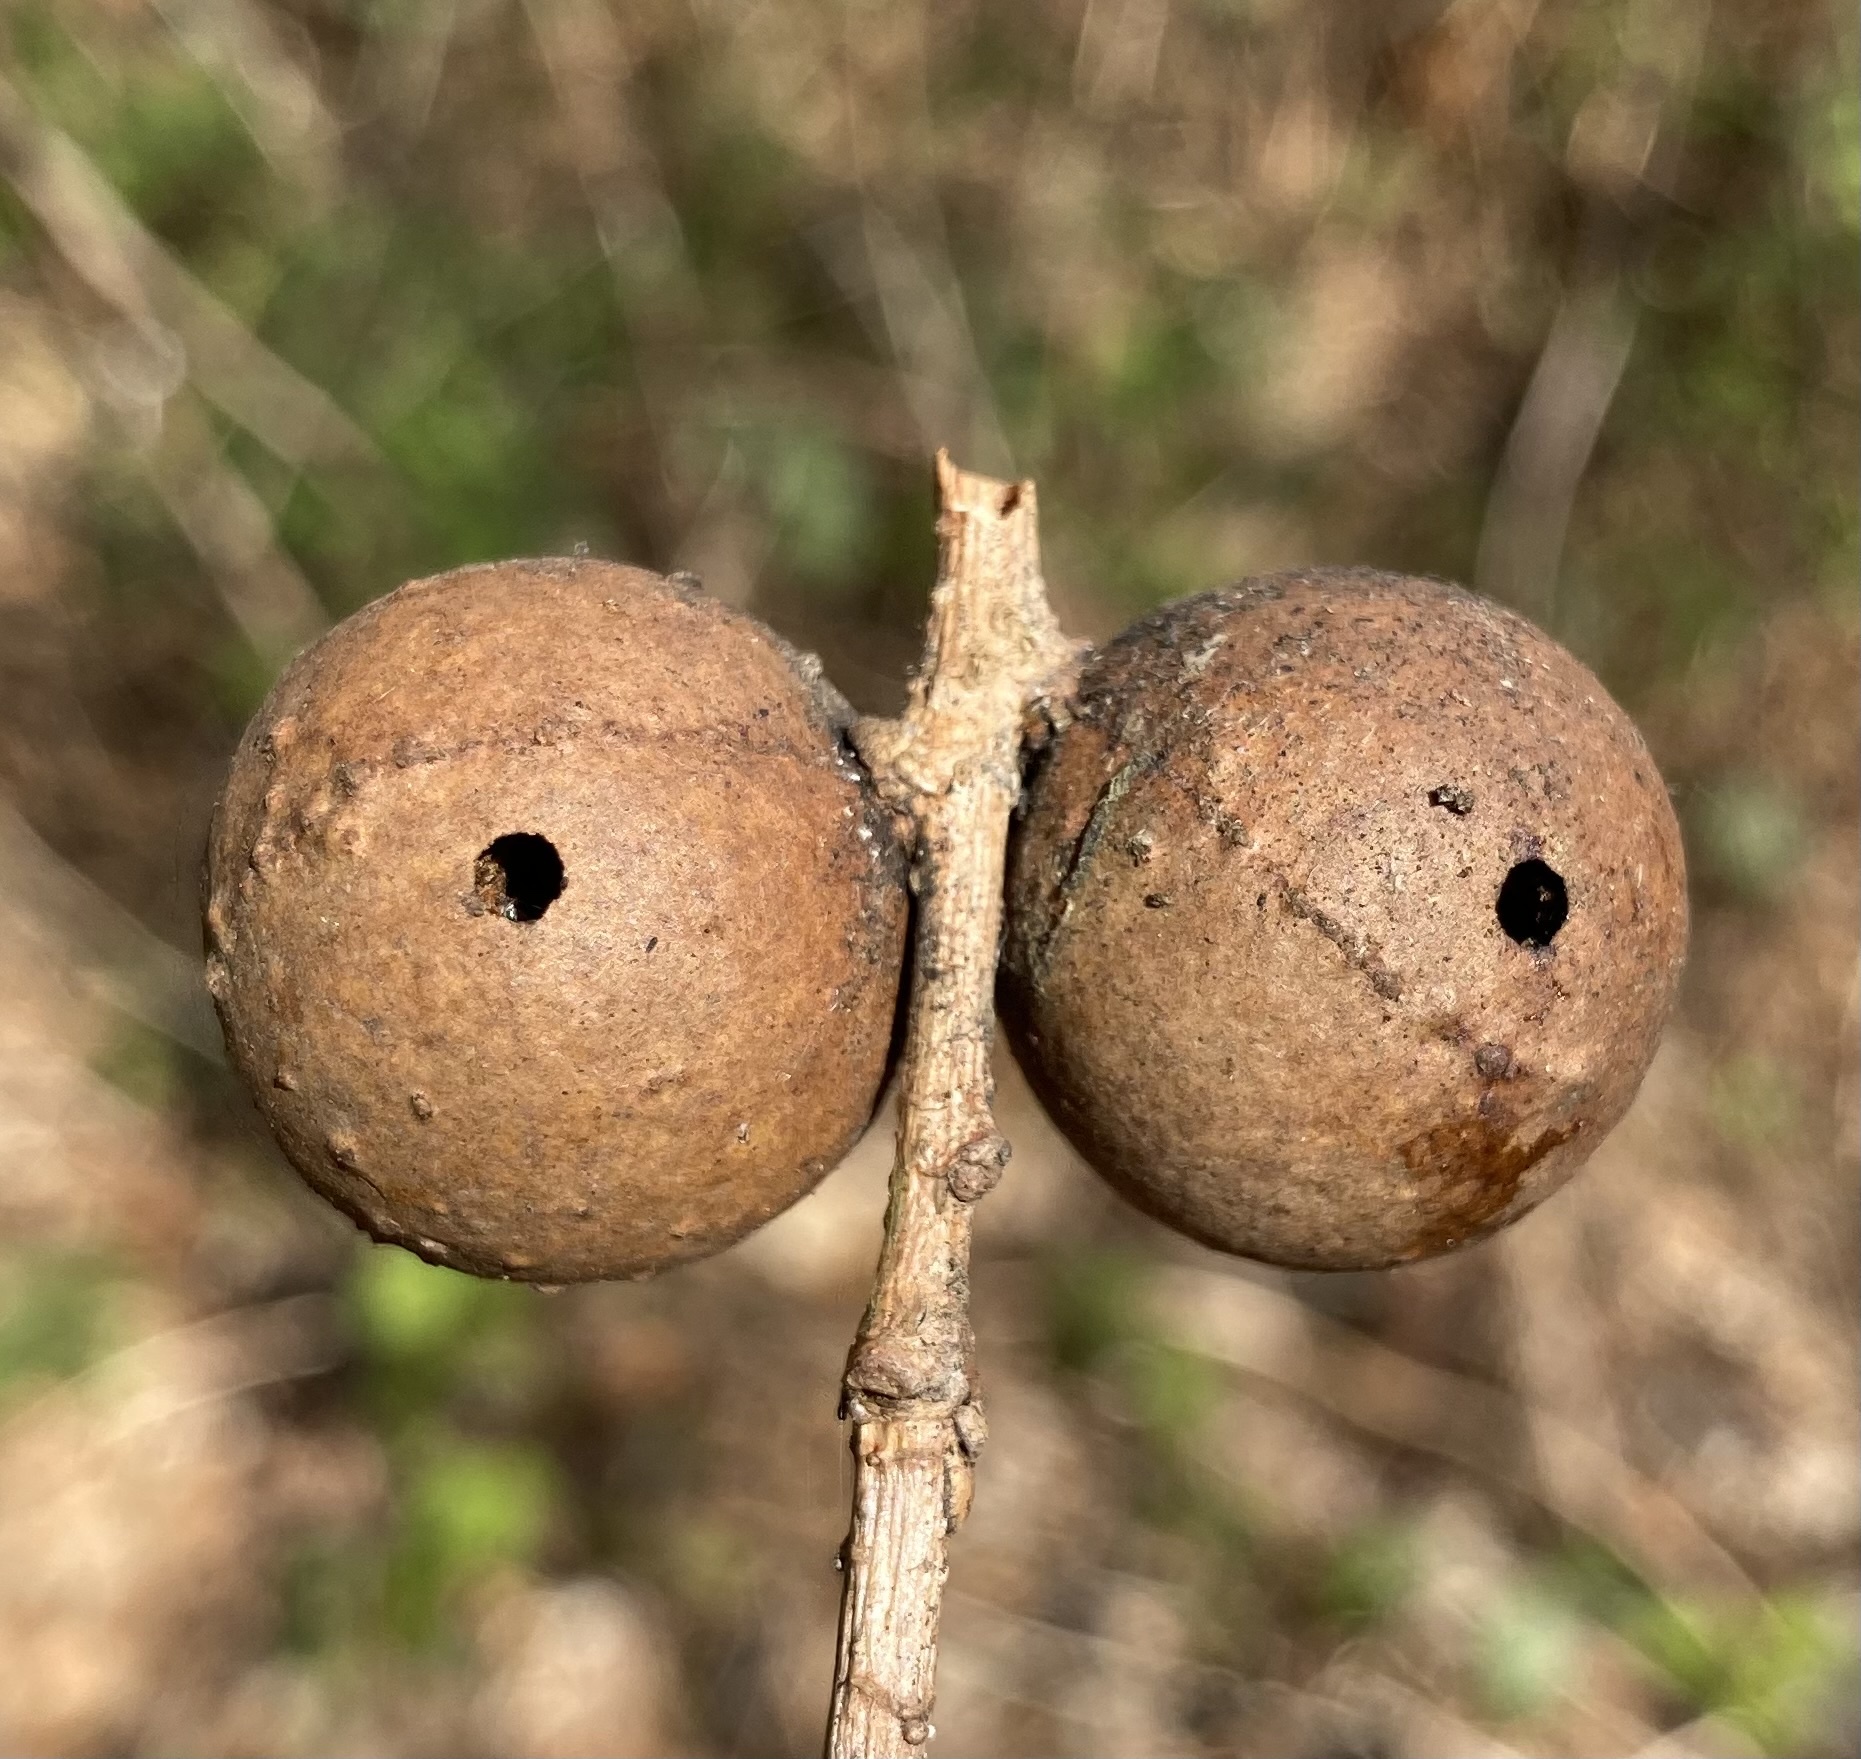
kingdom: Animalia
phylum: Arthropoda
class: Insecta
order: Hymenoptera
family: Cynipidae
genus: Andricus
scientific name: Andricus kollari
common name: Marble gall
